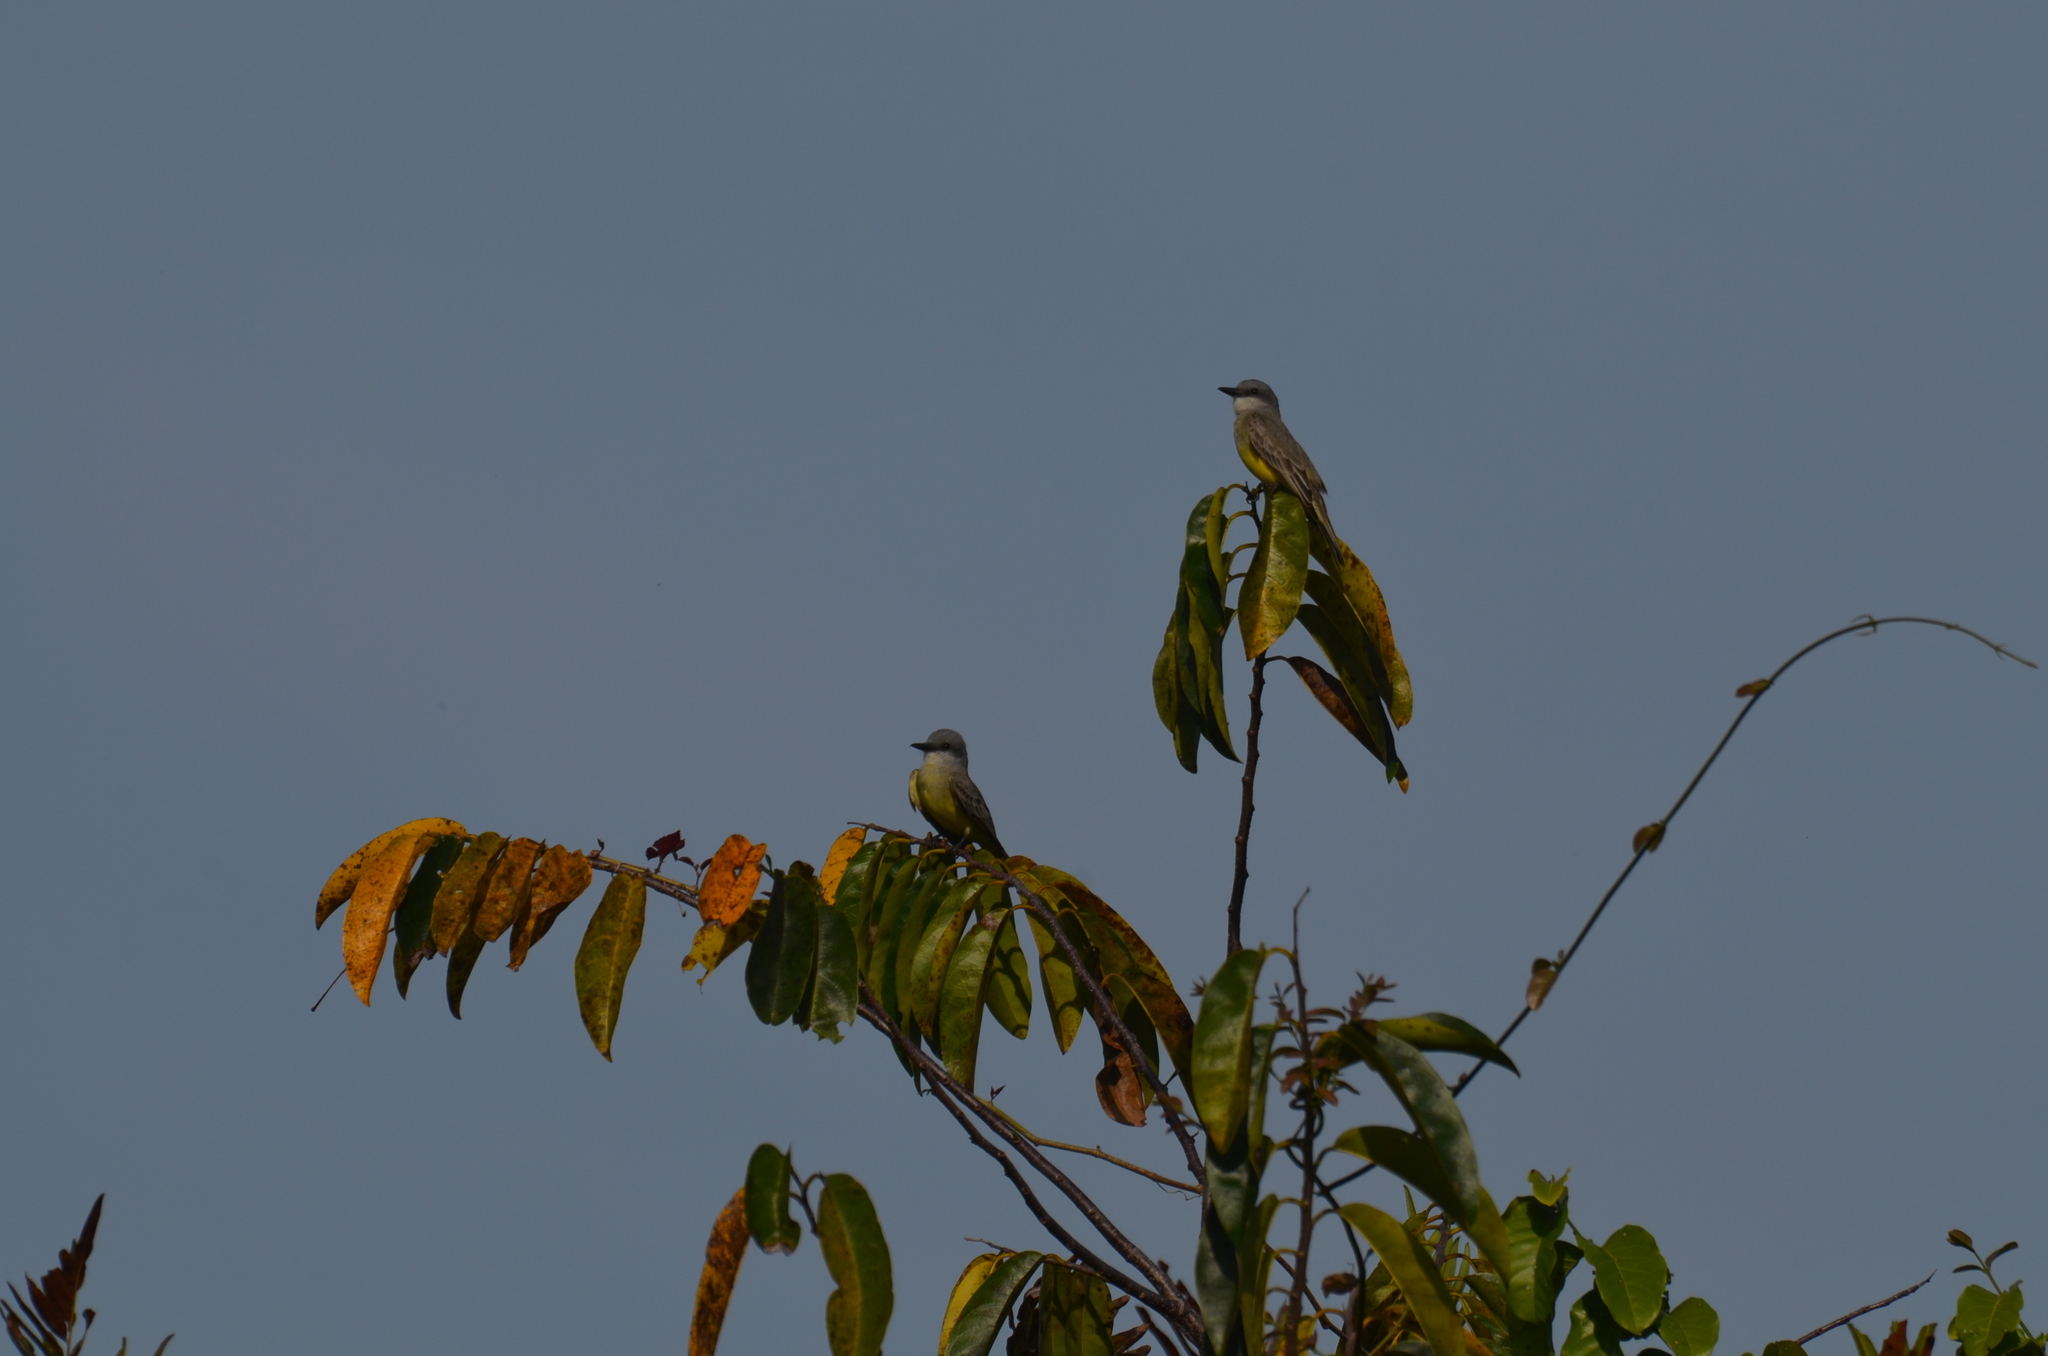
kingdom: Animalia
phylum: Chordata
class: Aves
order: Passeriformes
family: Tyrannidae
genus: Tyrannus
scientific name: Tyrannus melancholicus
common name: Tropical kingbird
